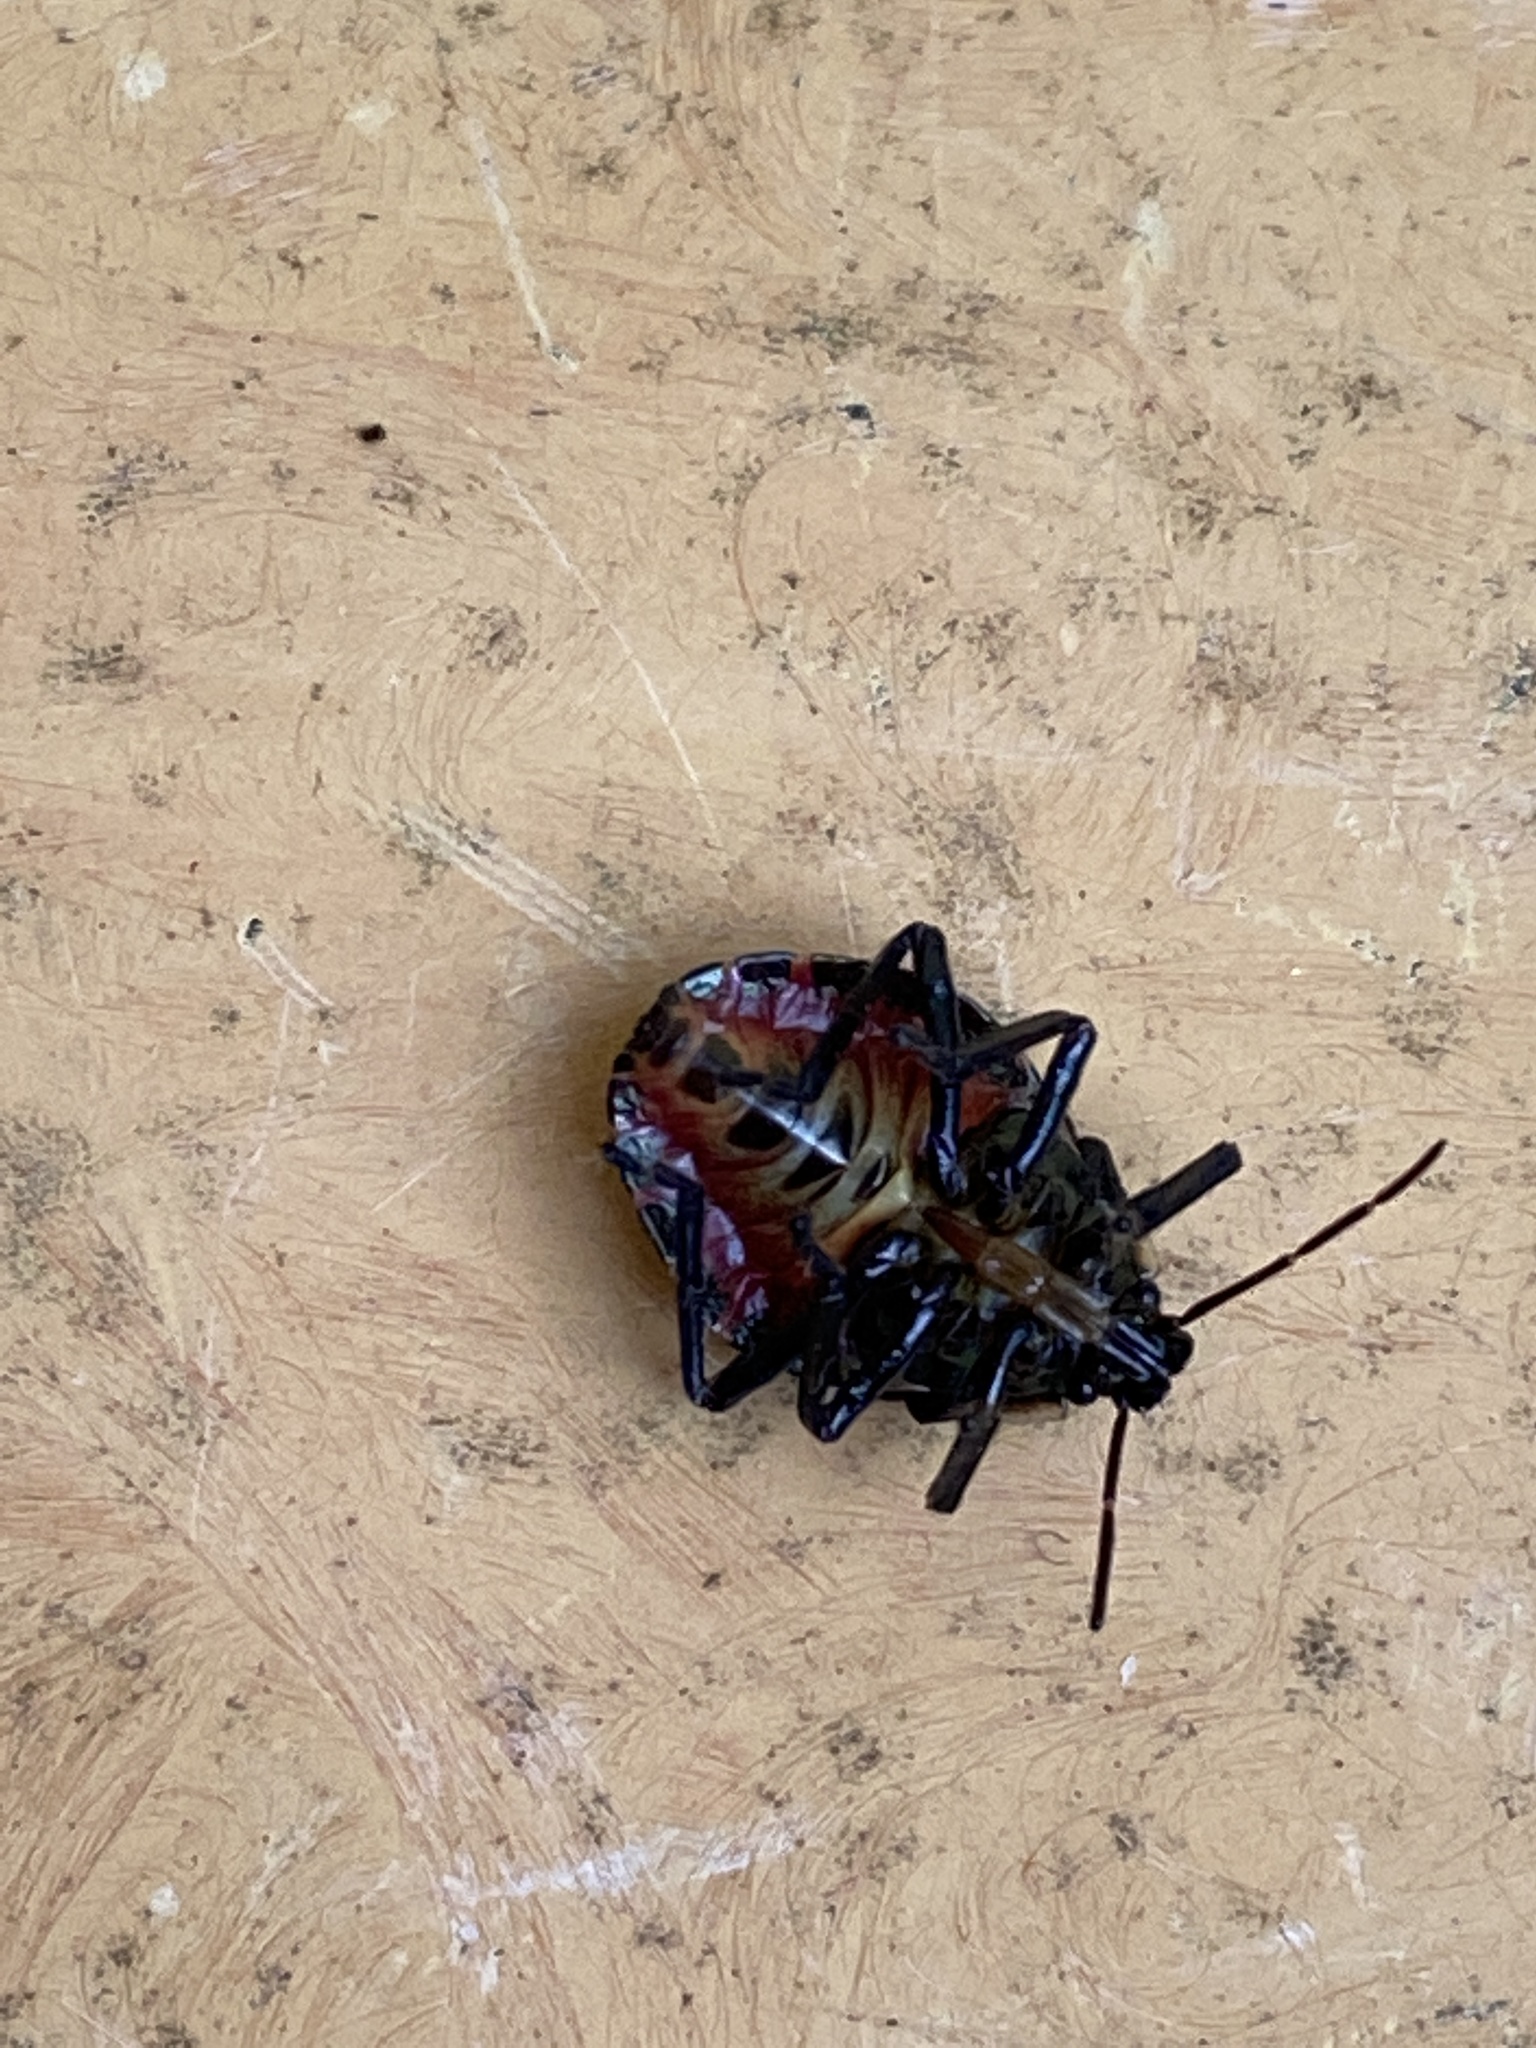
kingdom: Animalia
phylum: Arthropoda
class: Insecta
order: Hemiptera
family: Pentatomidae
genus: Picromerus
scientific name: Picromerus bidens
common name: Spiked shieldbug
